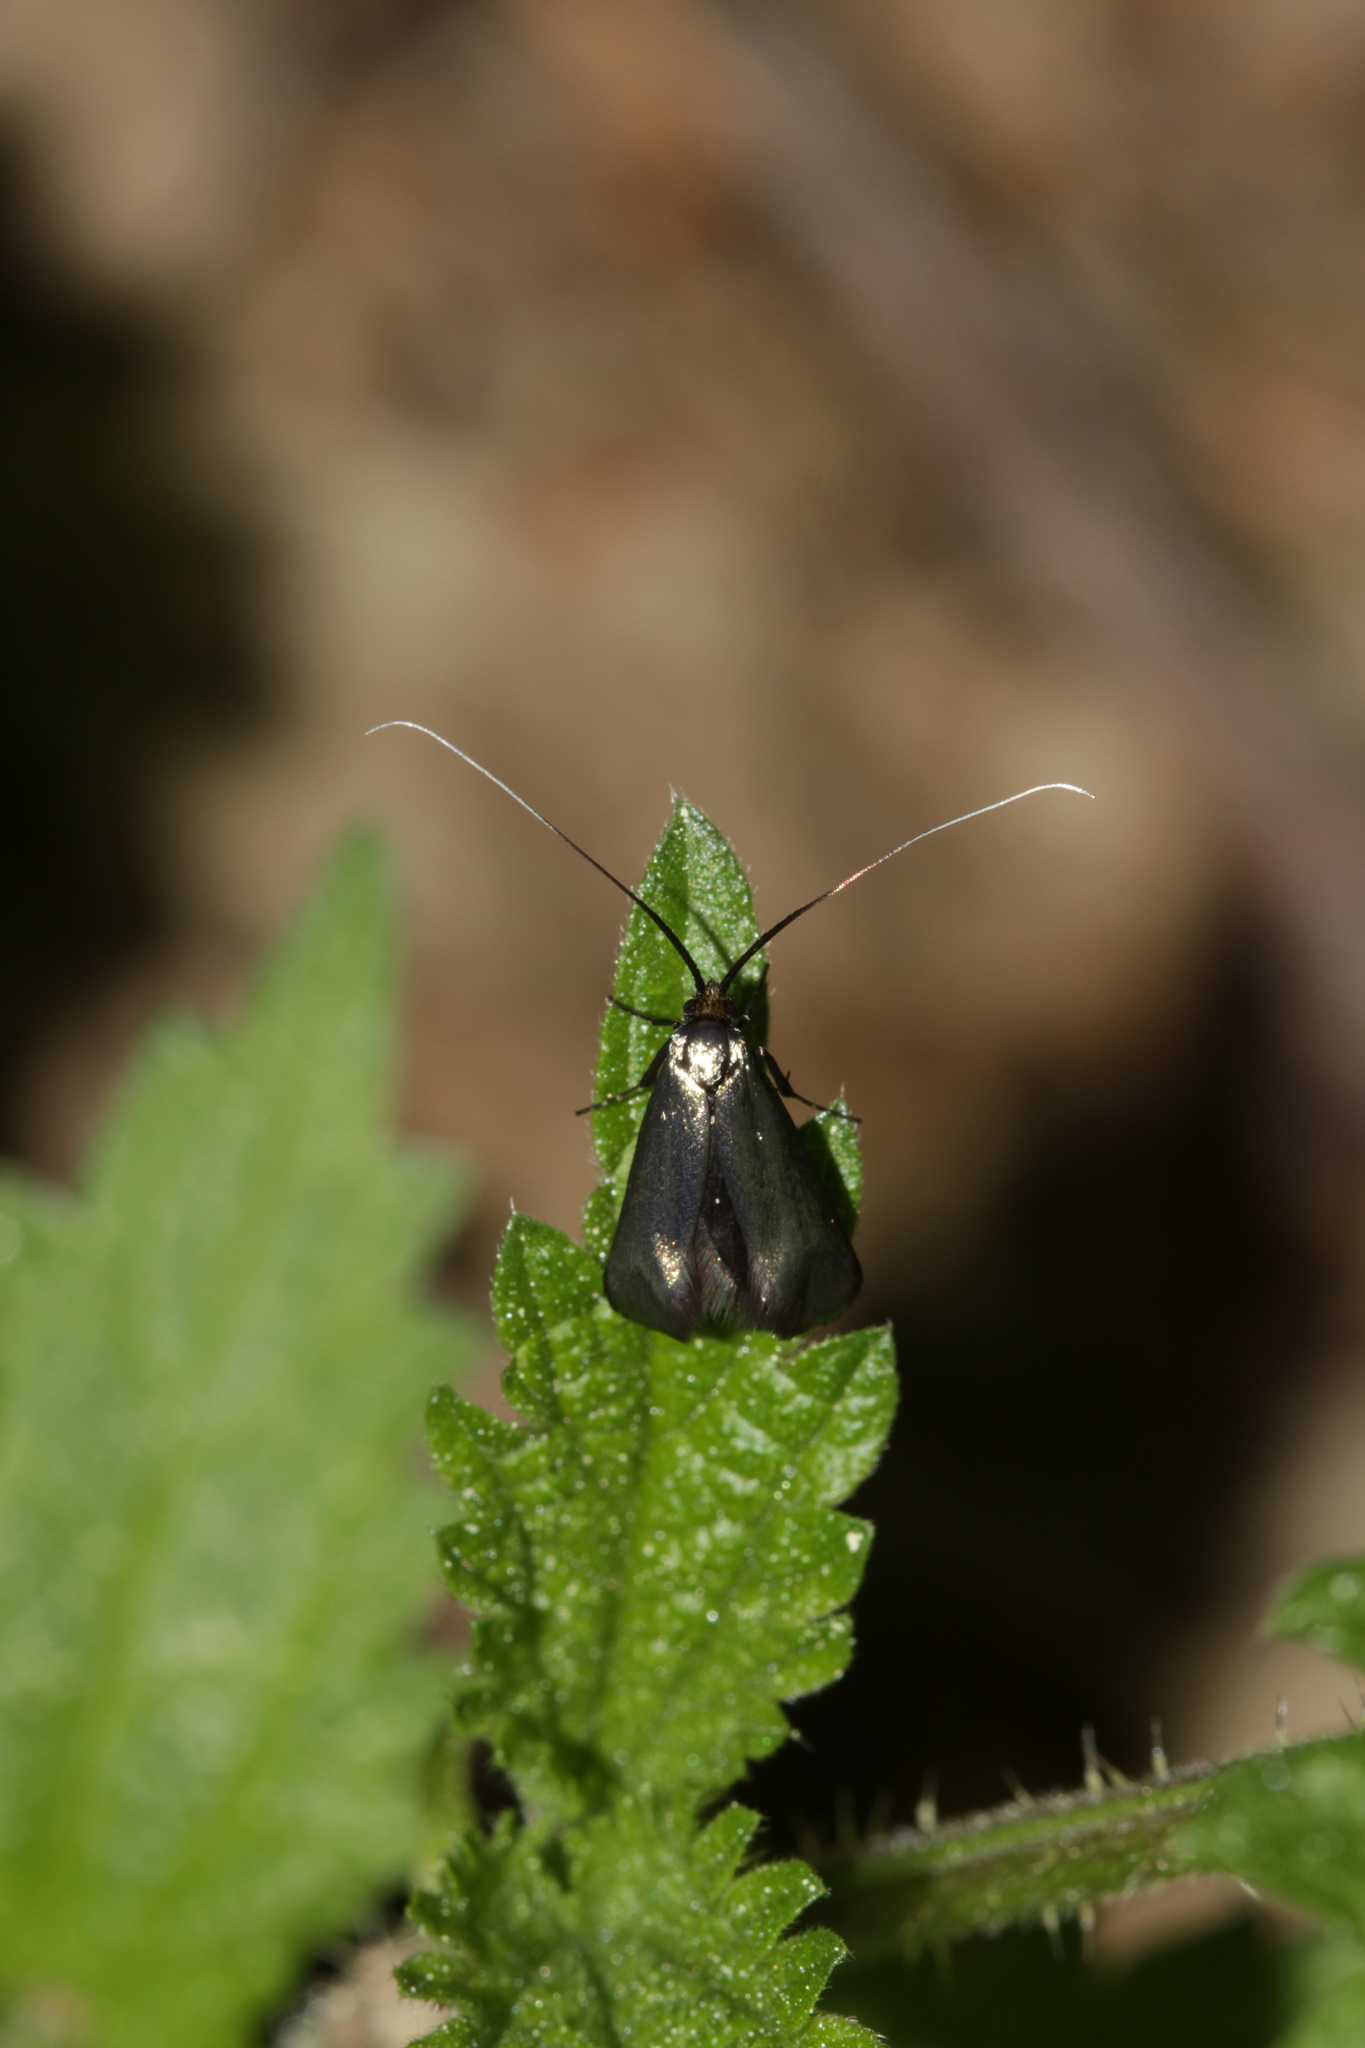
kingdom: Animalia
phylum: Arthropoda
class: Insecta
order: Lepidoptera
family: Adelidae
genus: Adela
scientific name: Adela viridella
